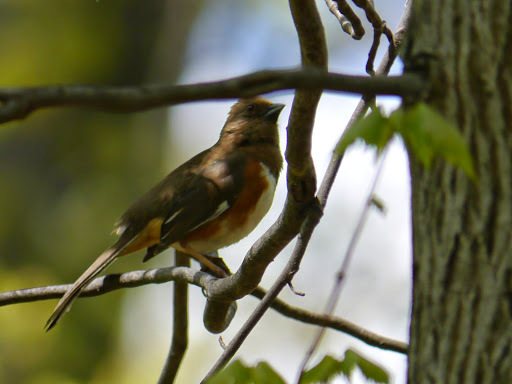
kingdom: Animalia
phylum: Chordata
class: Aves
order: Passeriformes
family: Passerellidae
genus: Pipilo
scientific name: Pipilo erythrophthalmus
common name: Eastern towhee
